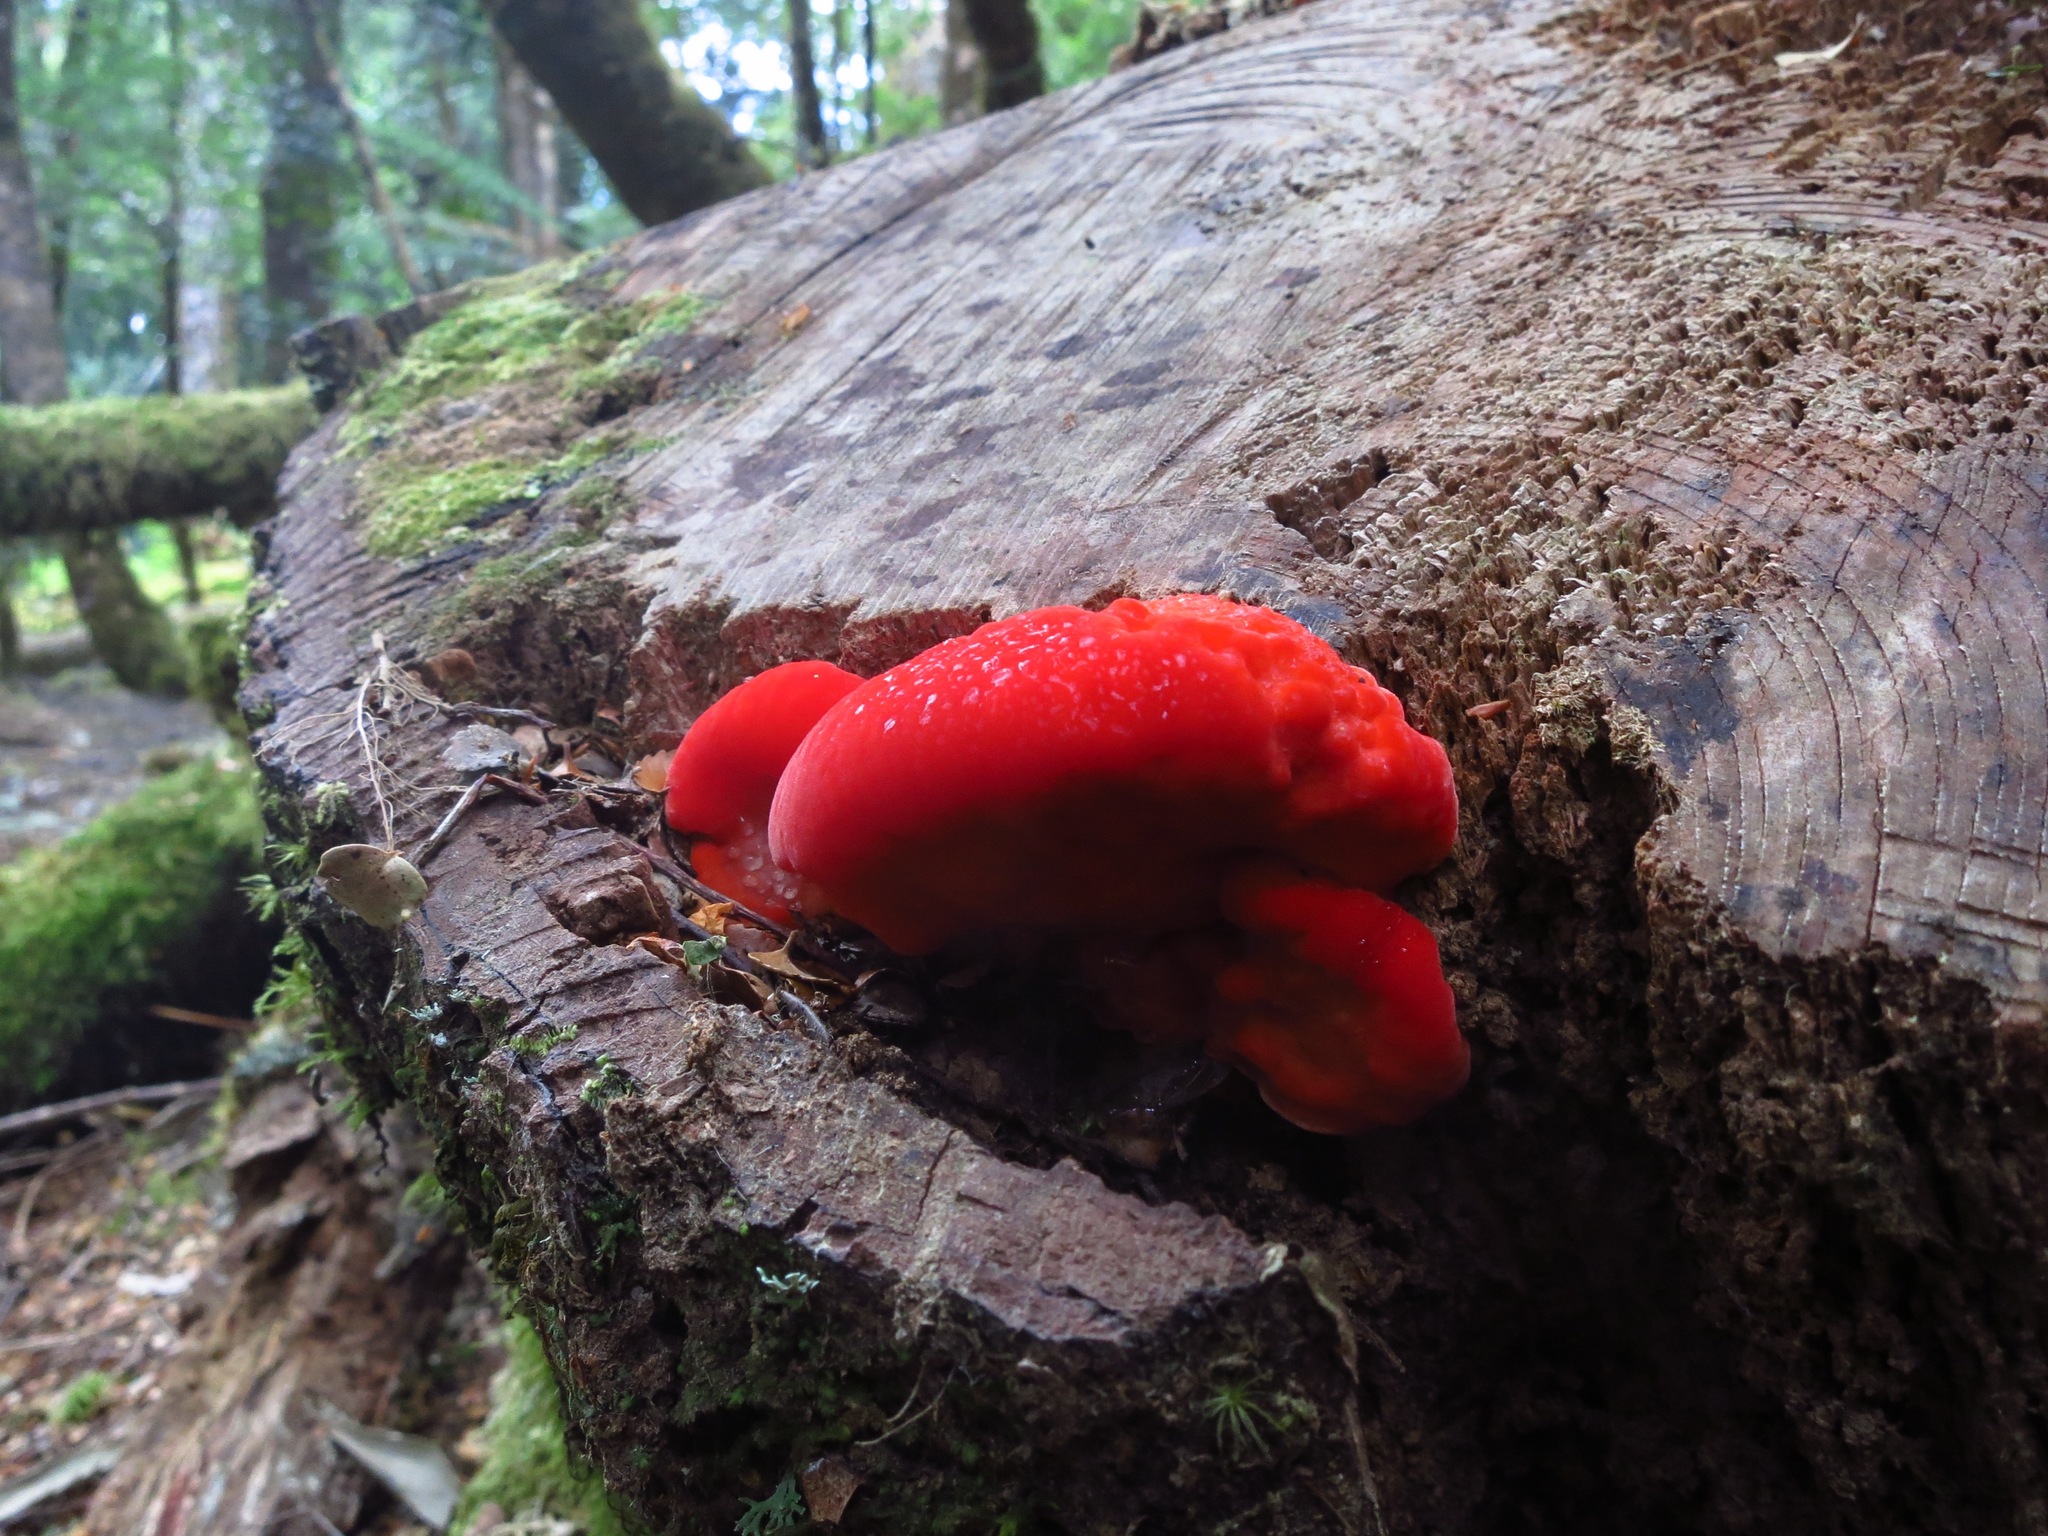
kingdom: Fungi
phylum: Basidiomycota
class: Agaricomycetes
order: Polyporales
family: Incrustoporiaceae
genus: Tyromyces
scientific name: Tyromyces pulcherrimus
